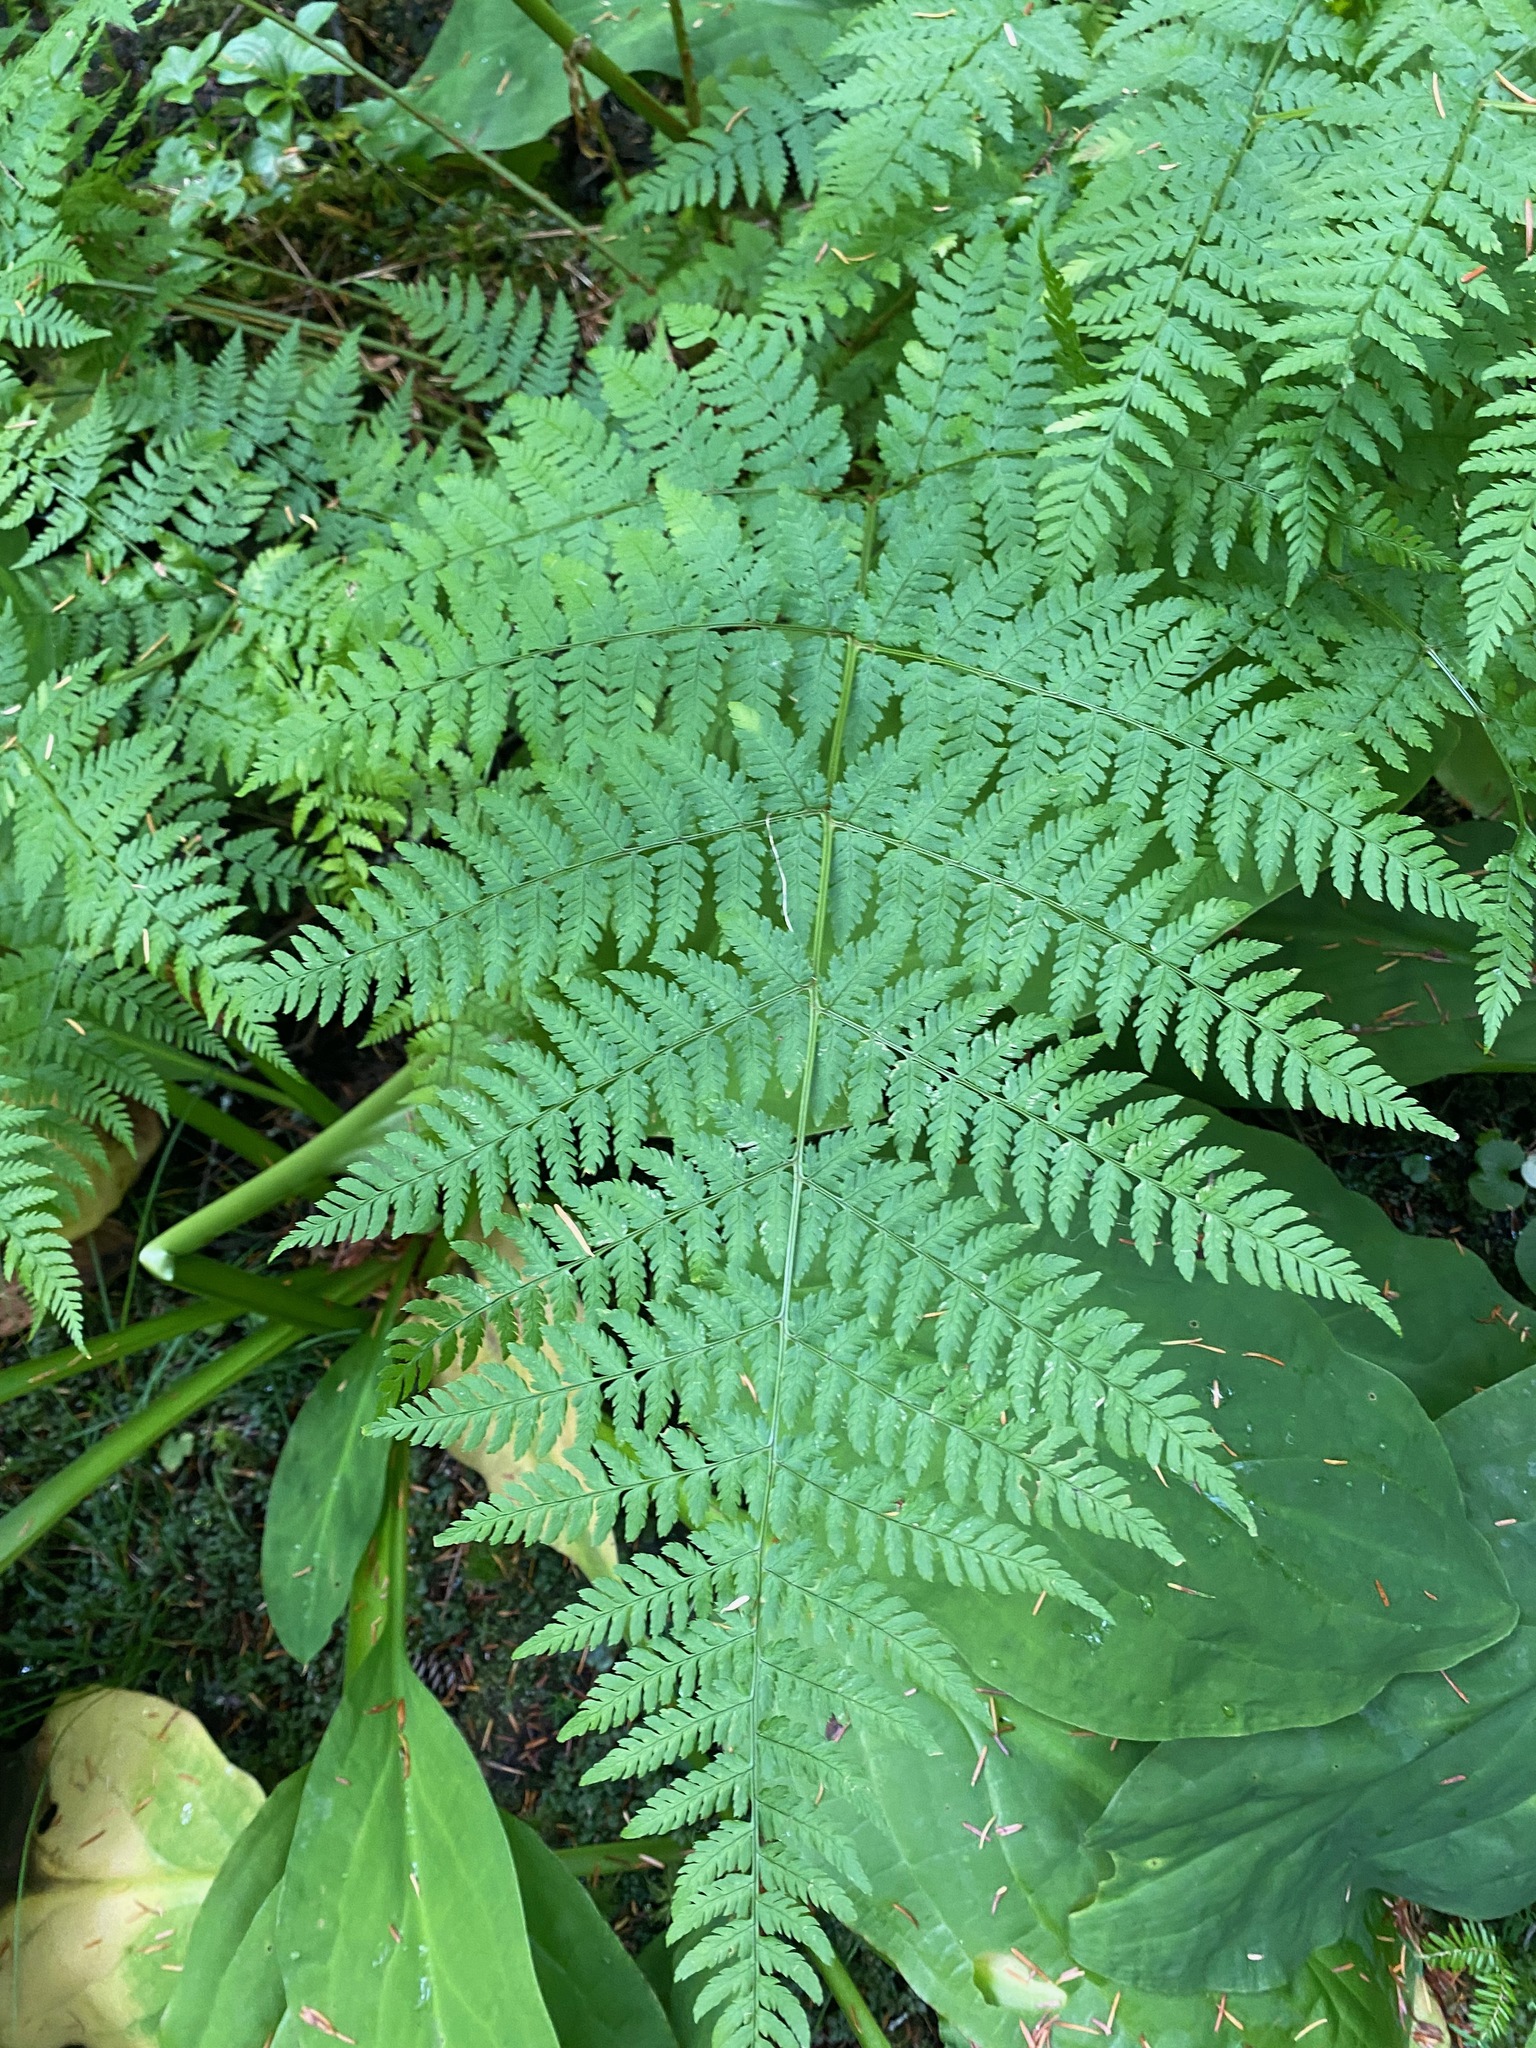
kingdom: Plantae
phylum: Tracheophyta
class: Polypodiopsida
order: Polypodiales
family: Dryopteridaceae
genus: Dryopteris
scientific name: Dryopteris expansa
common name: Northern buckler fern
